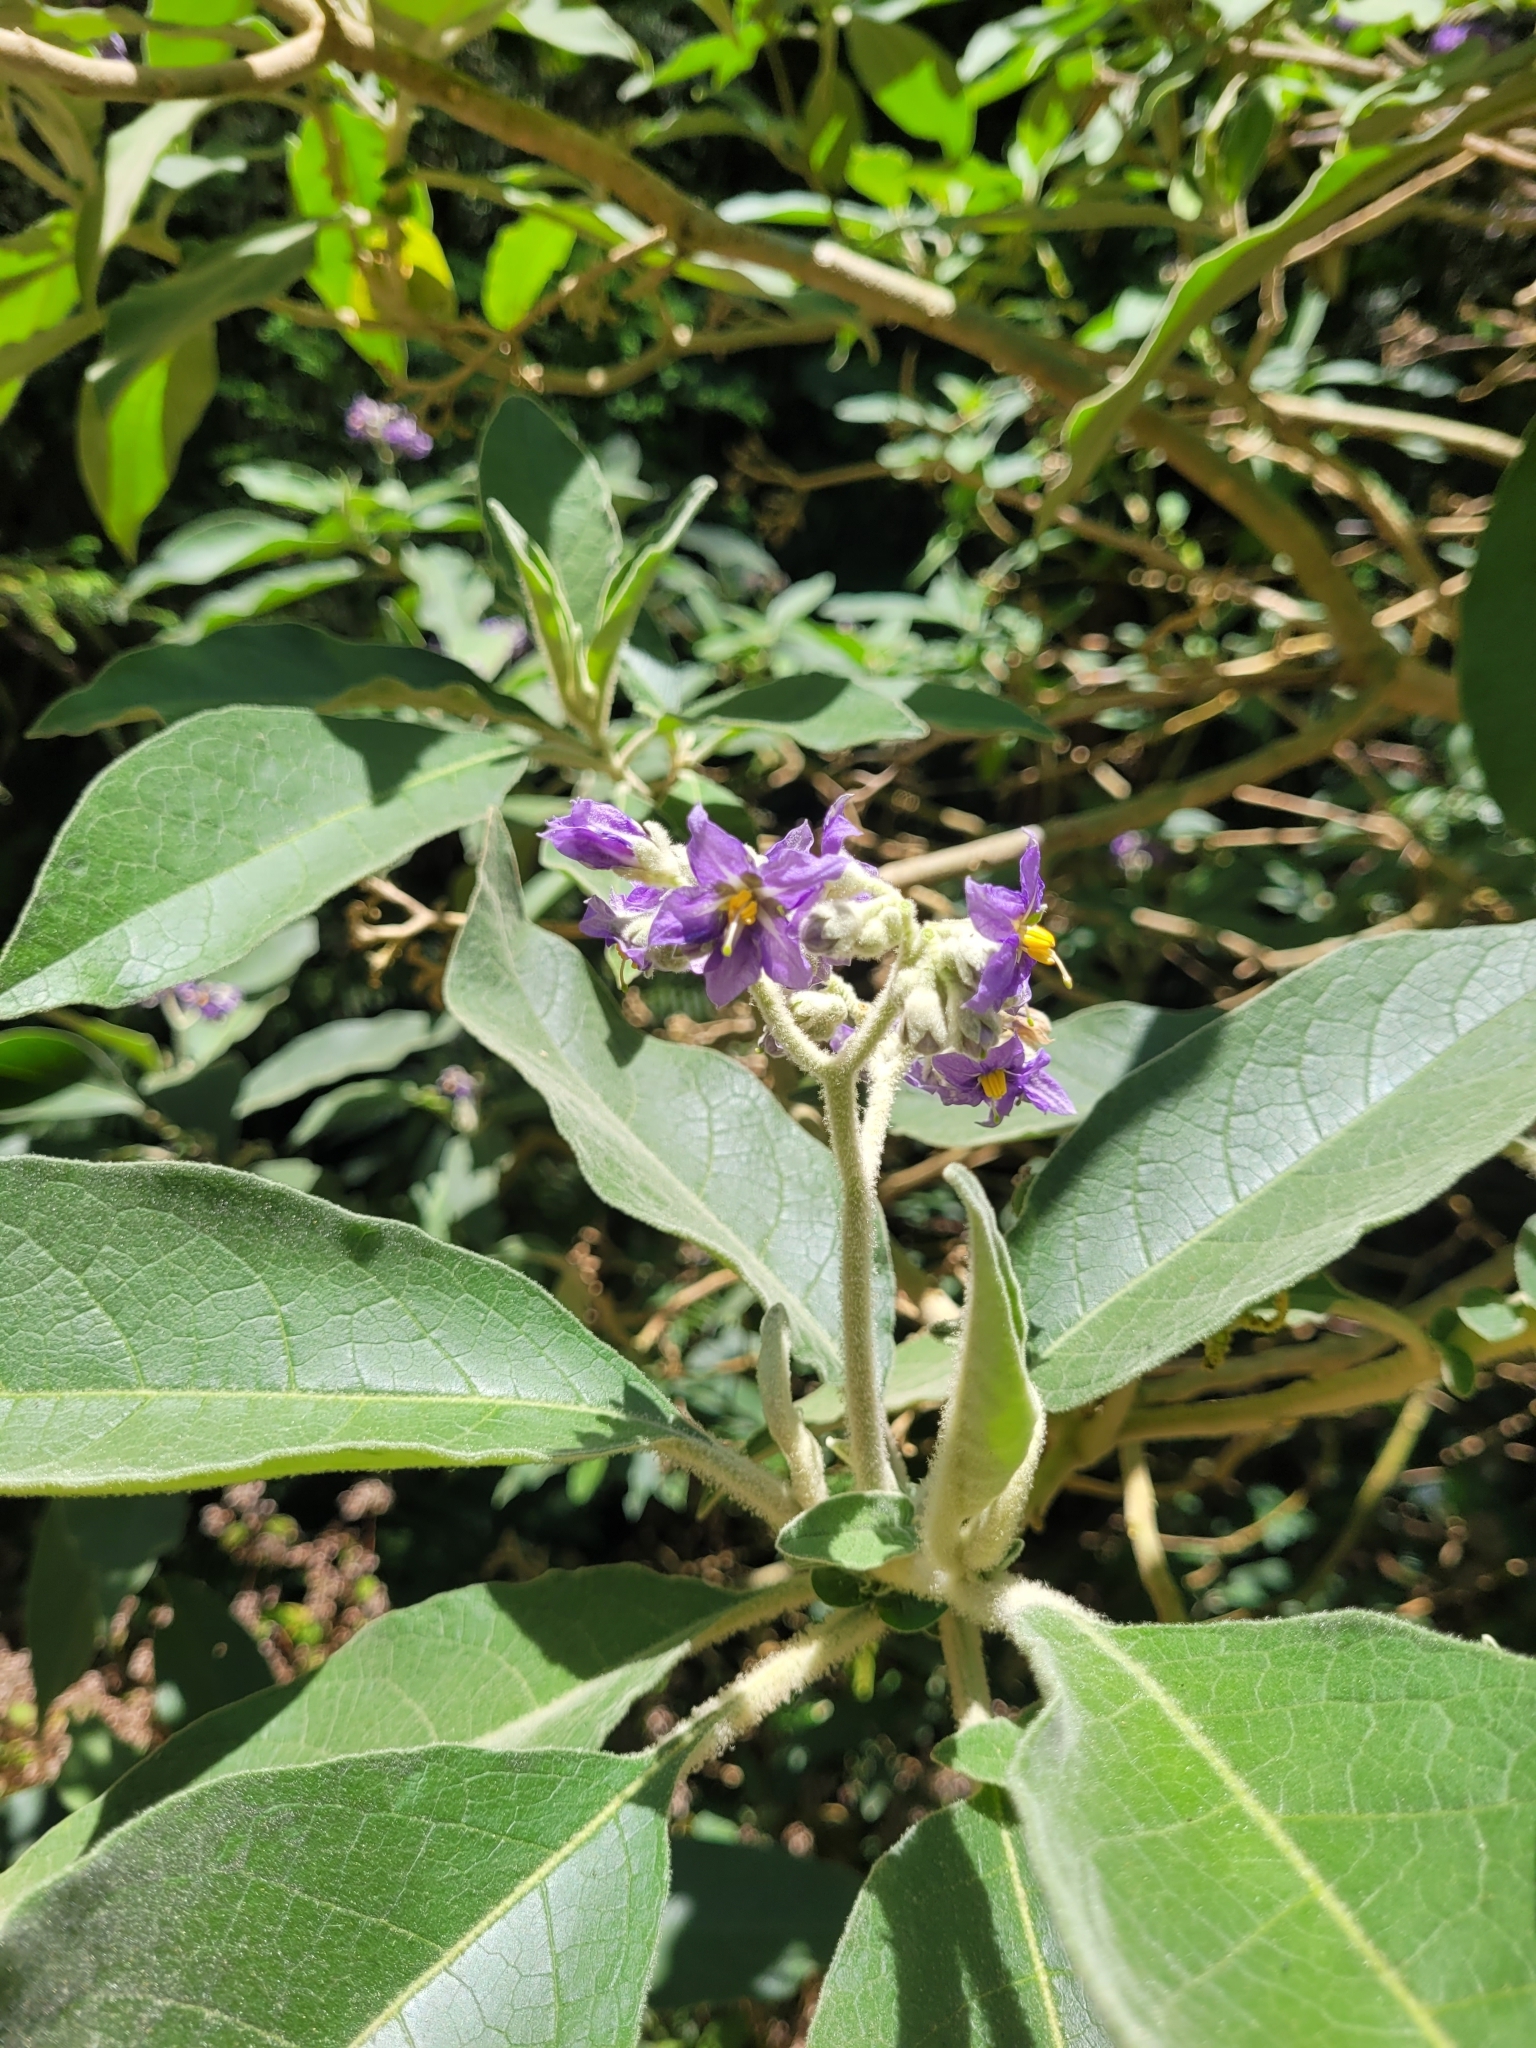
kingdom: Plantae
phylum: Tracheophyta
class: Magnoliopsida
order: Solanales
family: Solanaceae
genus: Solanum
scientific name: Solanum mauritianum
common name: Earleaf nightshade
